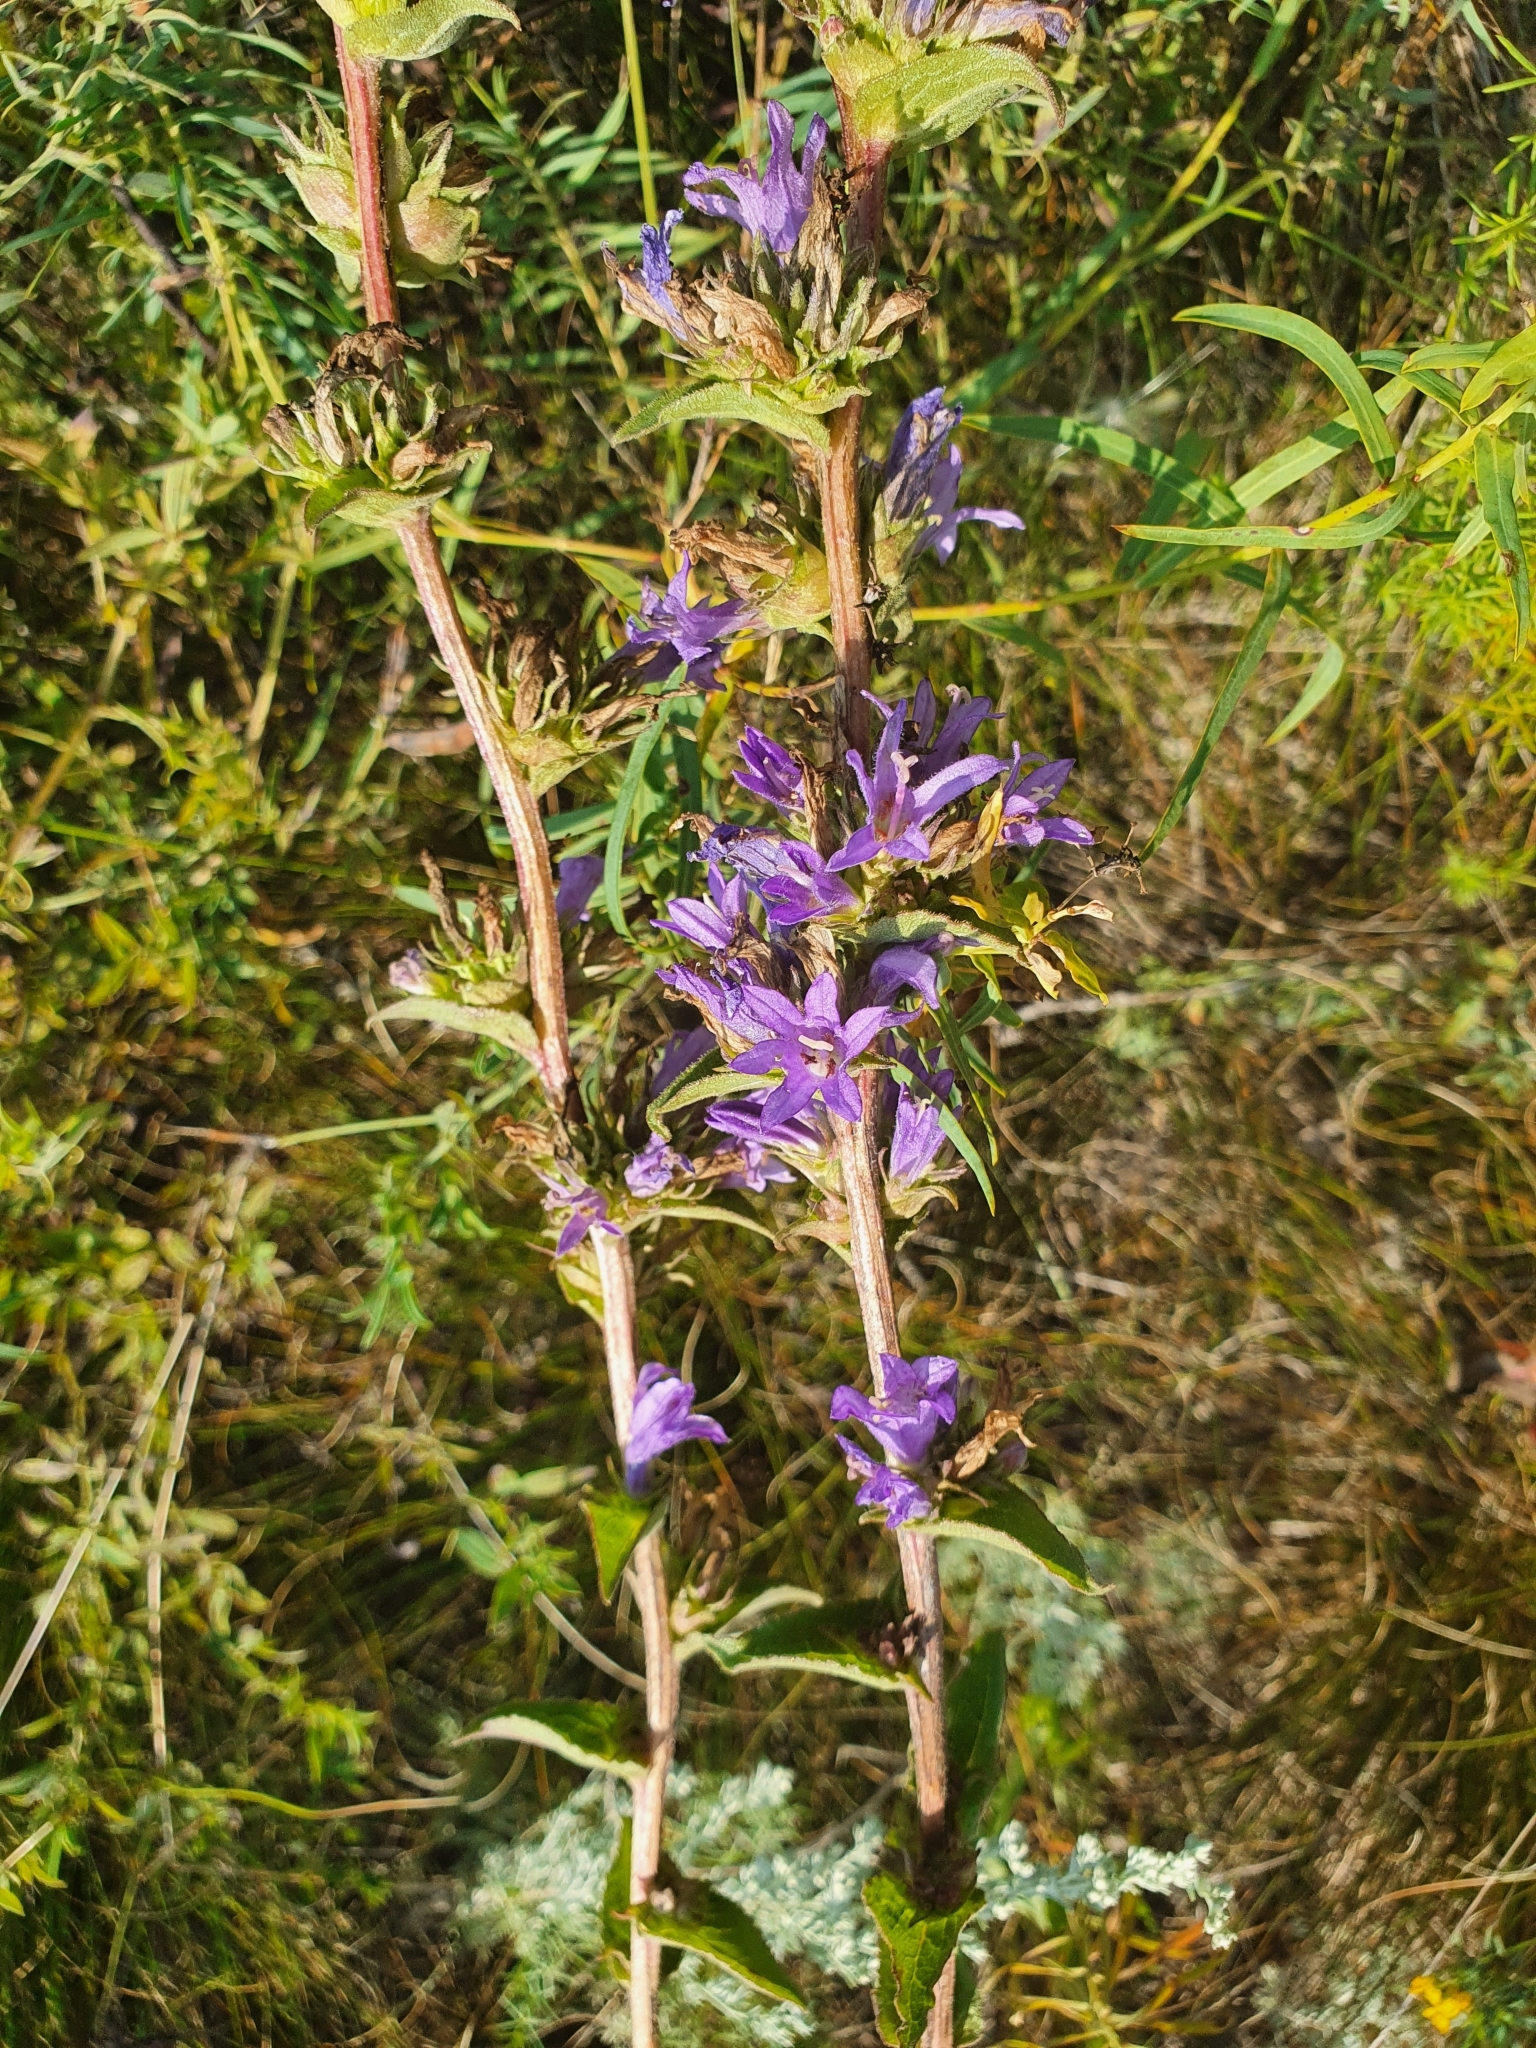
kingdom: Plantae
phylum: Tracheophyta
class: Magnoliopsida
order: Asterales
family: Campanulaceae
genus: Campanula
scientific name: Campanula glomerata
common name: Clustered bellflower
